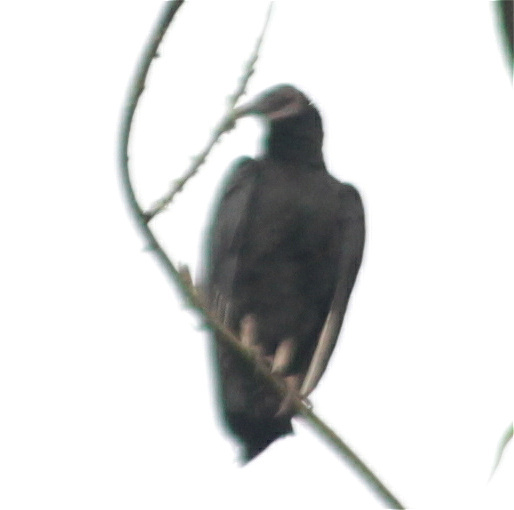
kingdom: Animalia
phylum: Chordata
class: Aves
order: Accipitriformes
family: Cathartidae
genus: Coragyps
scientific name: Coragyps atratus
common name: Black vulture
